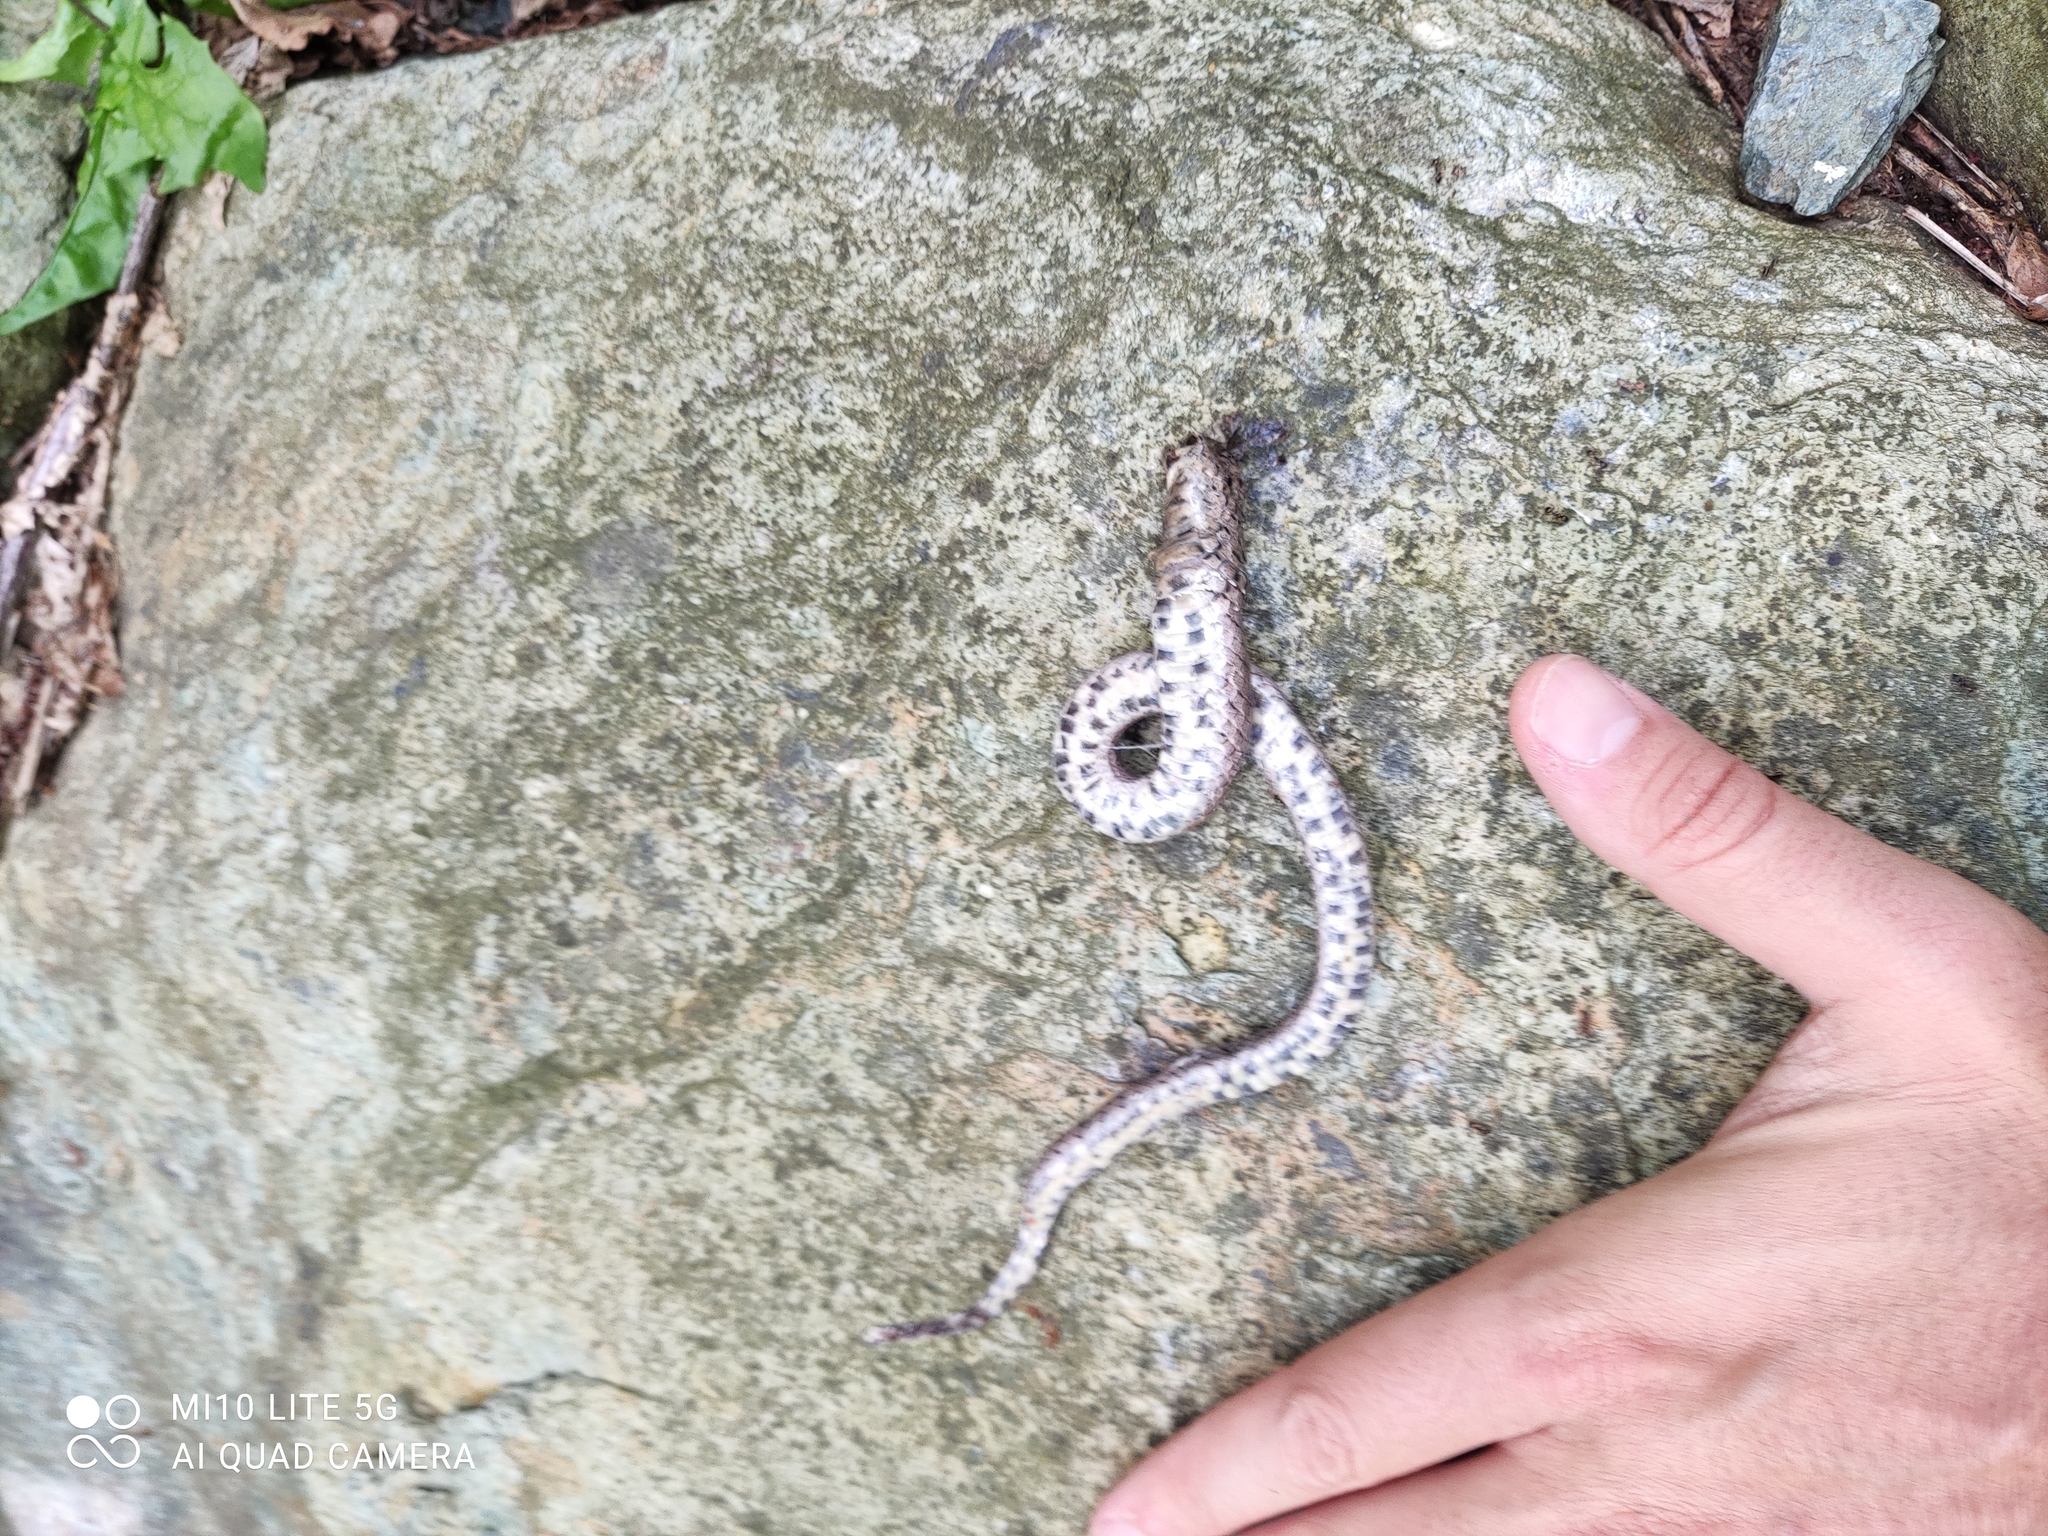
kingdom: Animalia
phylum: Chordata
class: Squamata
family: Colubridae
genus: Coronella
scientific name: Coronella girondica
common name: Southern smooth snake
